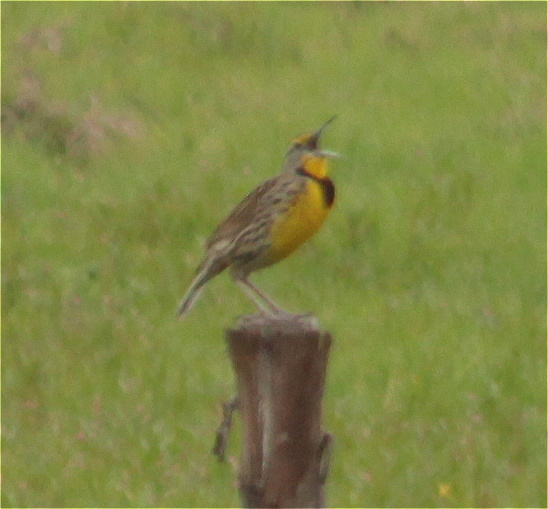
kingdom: Animalia
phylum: Chordata
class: Aves
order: Passeriformes
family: Icteridae
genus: Sturnella
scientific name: Sturnella magna
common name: Eastern meadowlark
